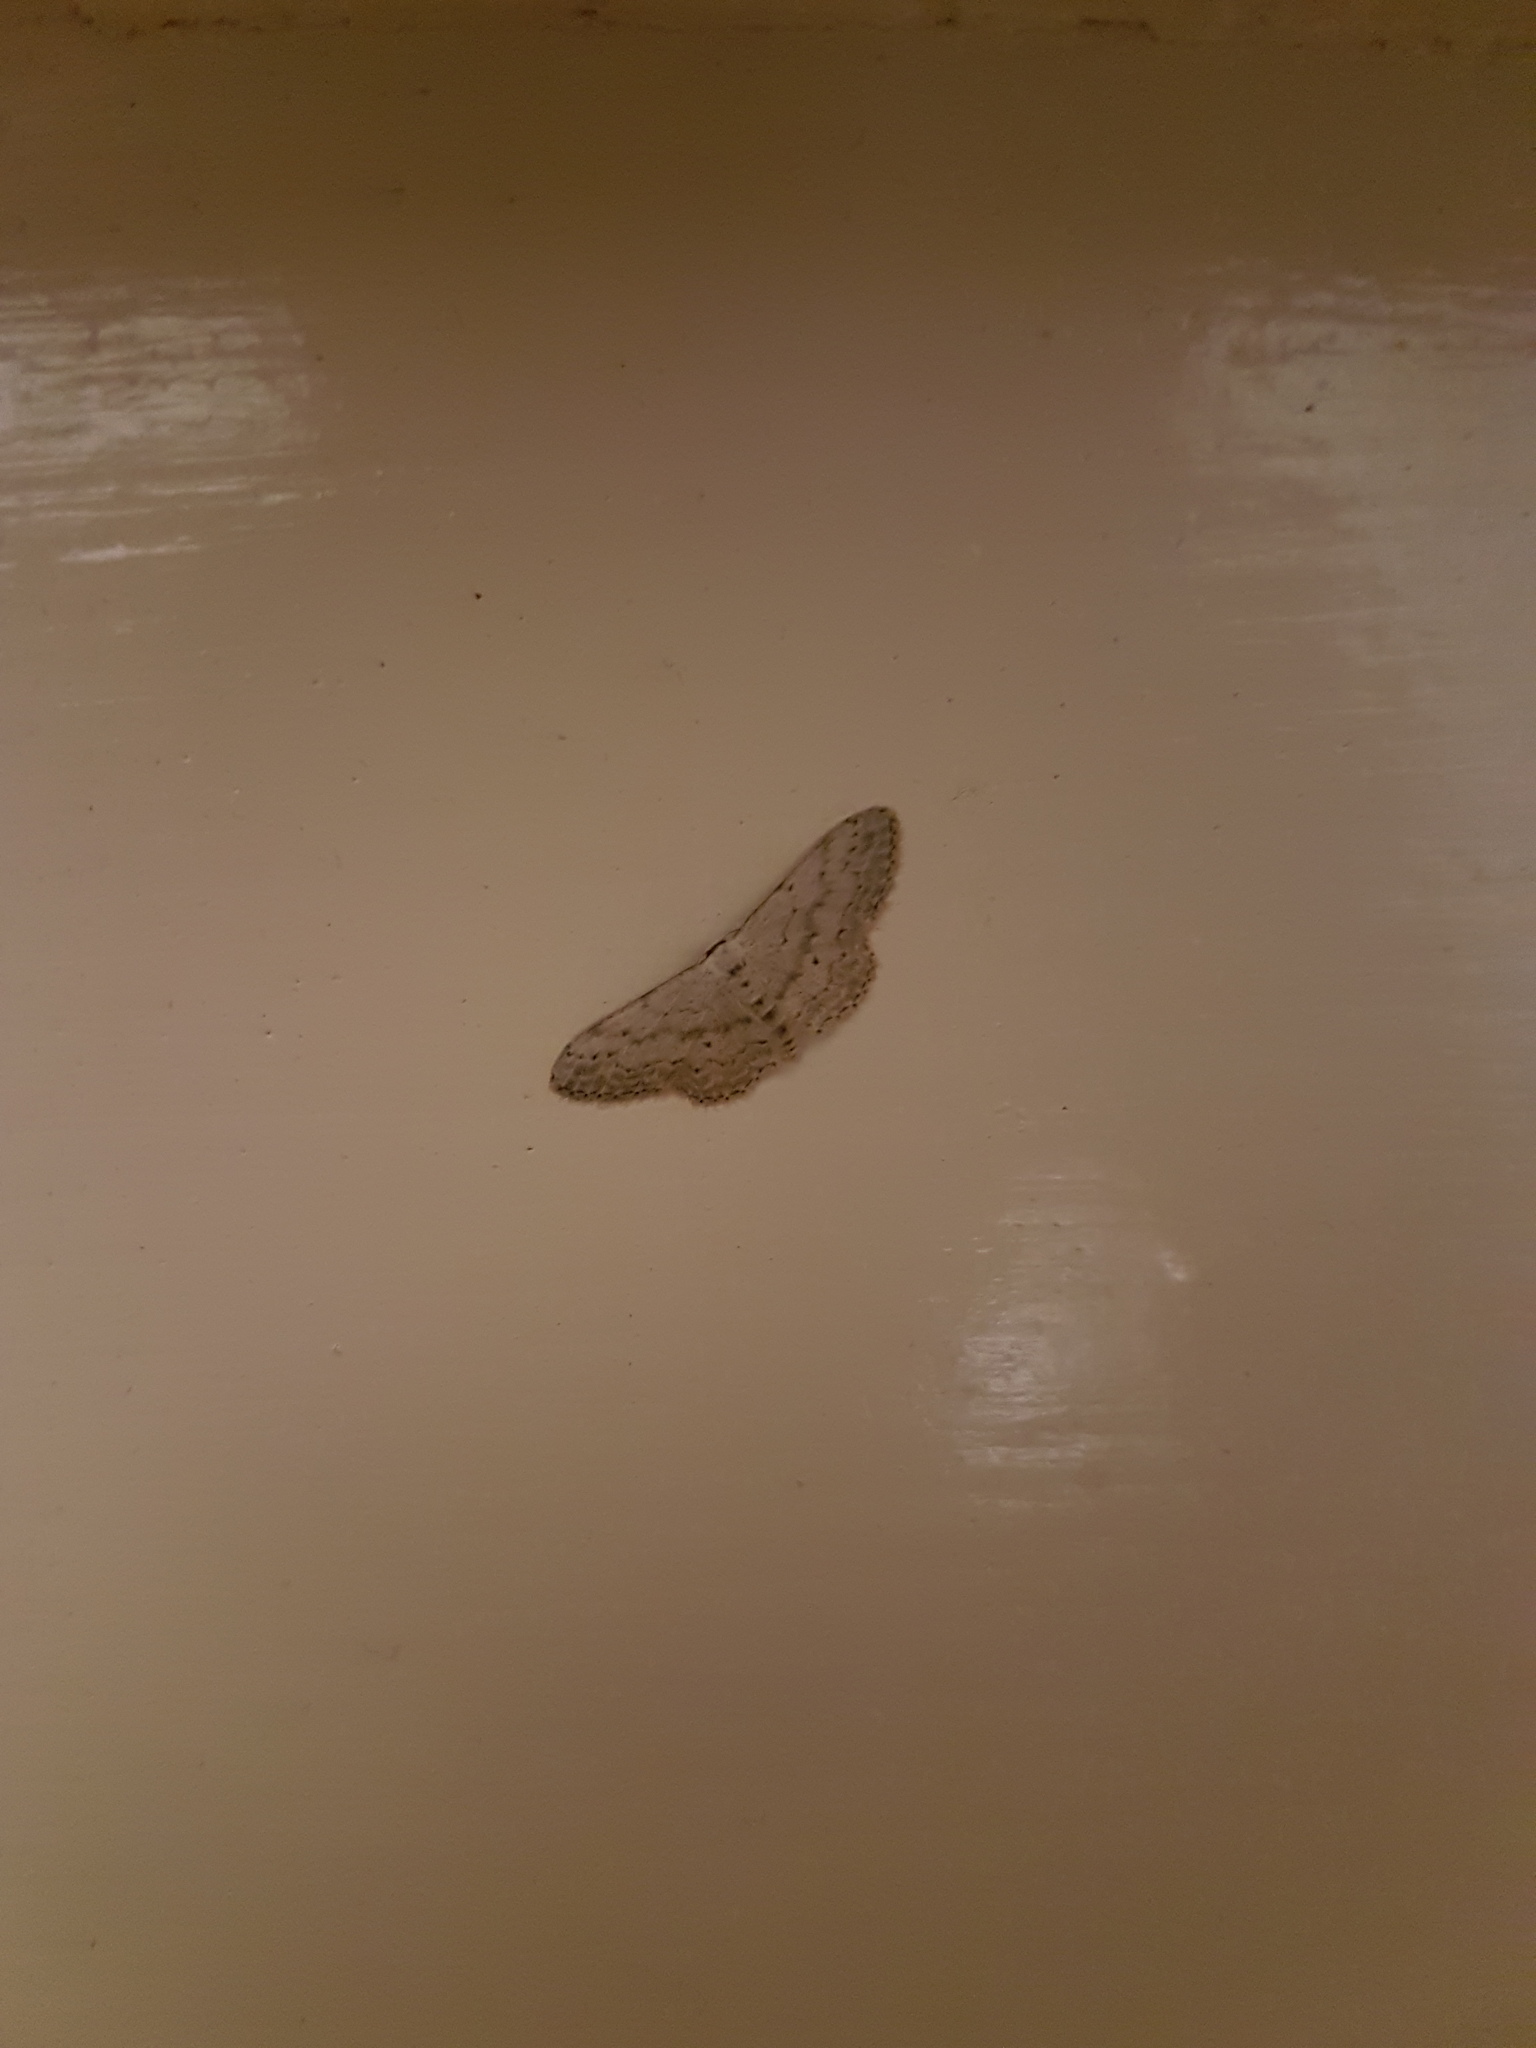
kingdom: Animalia
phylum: Arthropoda
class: Insecta
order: Lepidoptera
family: Geometridae
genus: Idaea
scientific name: Idaea seriata
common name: Small dusty wave
